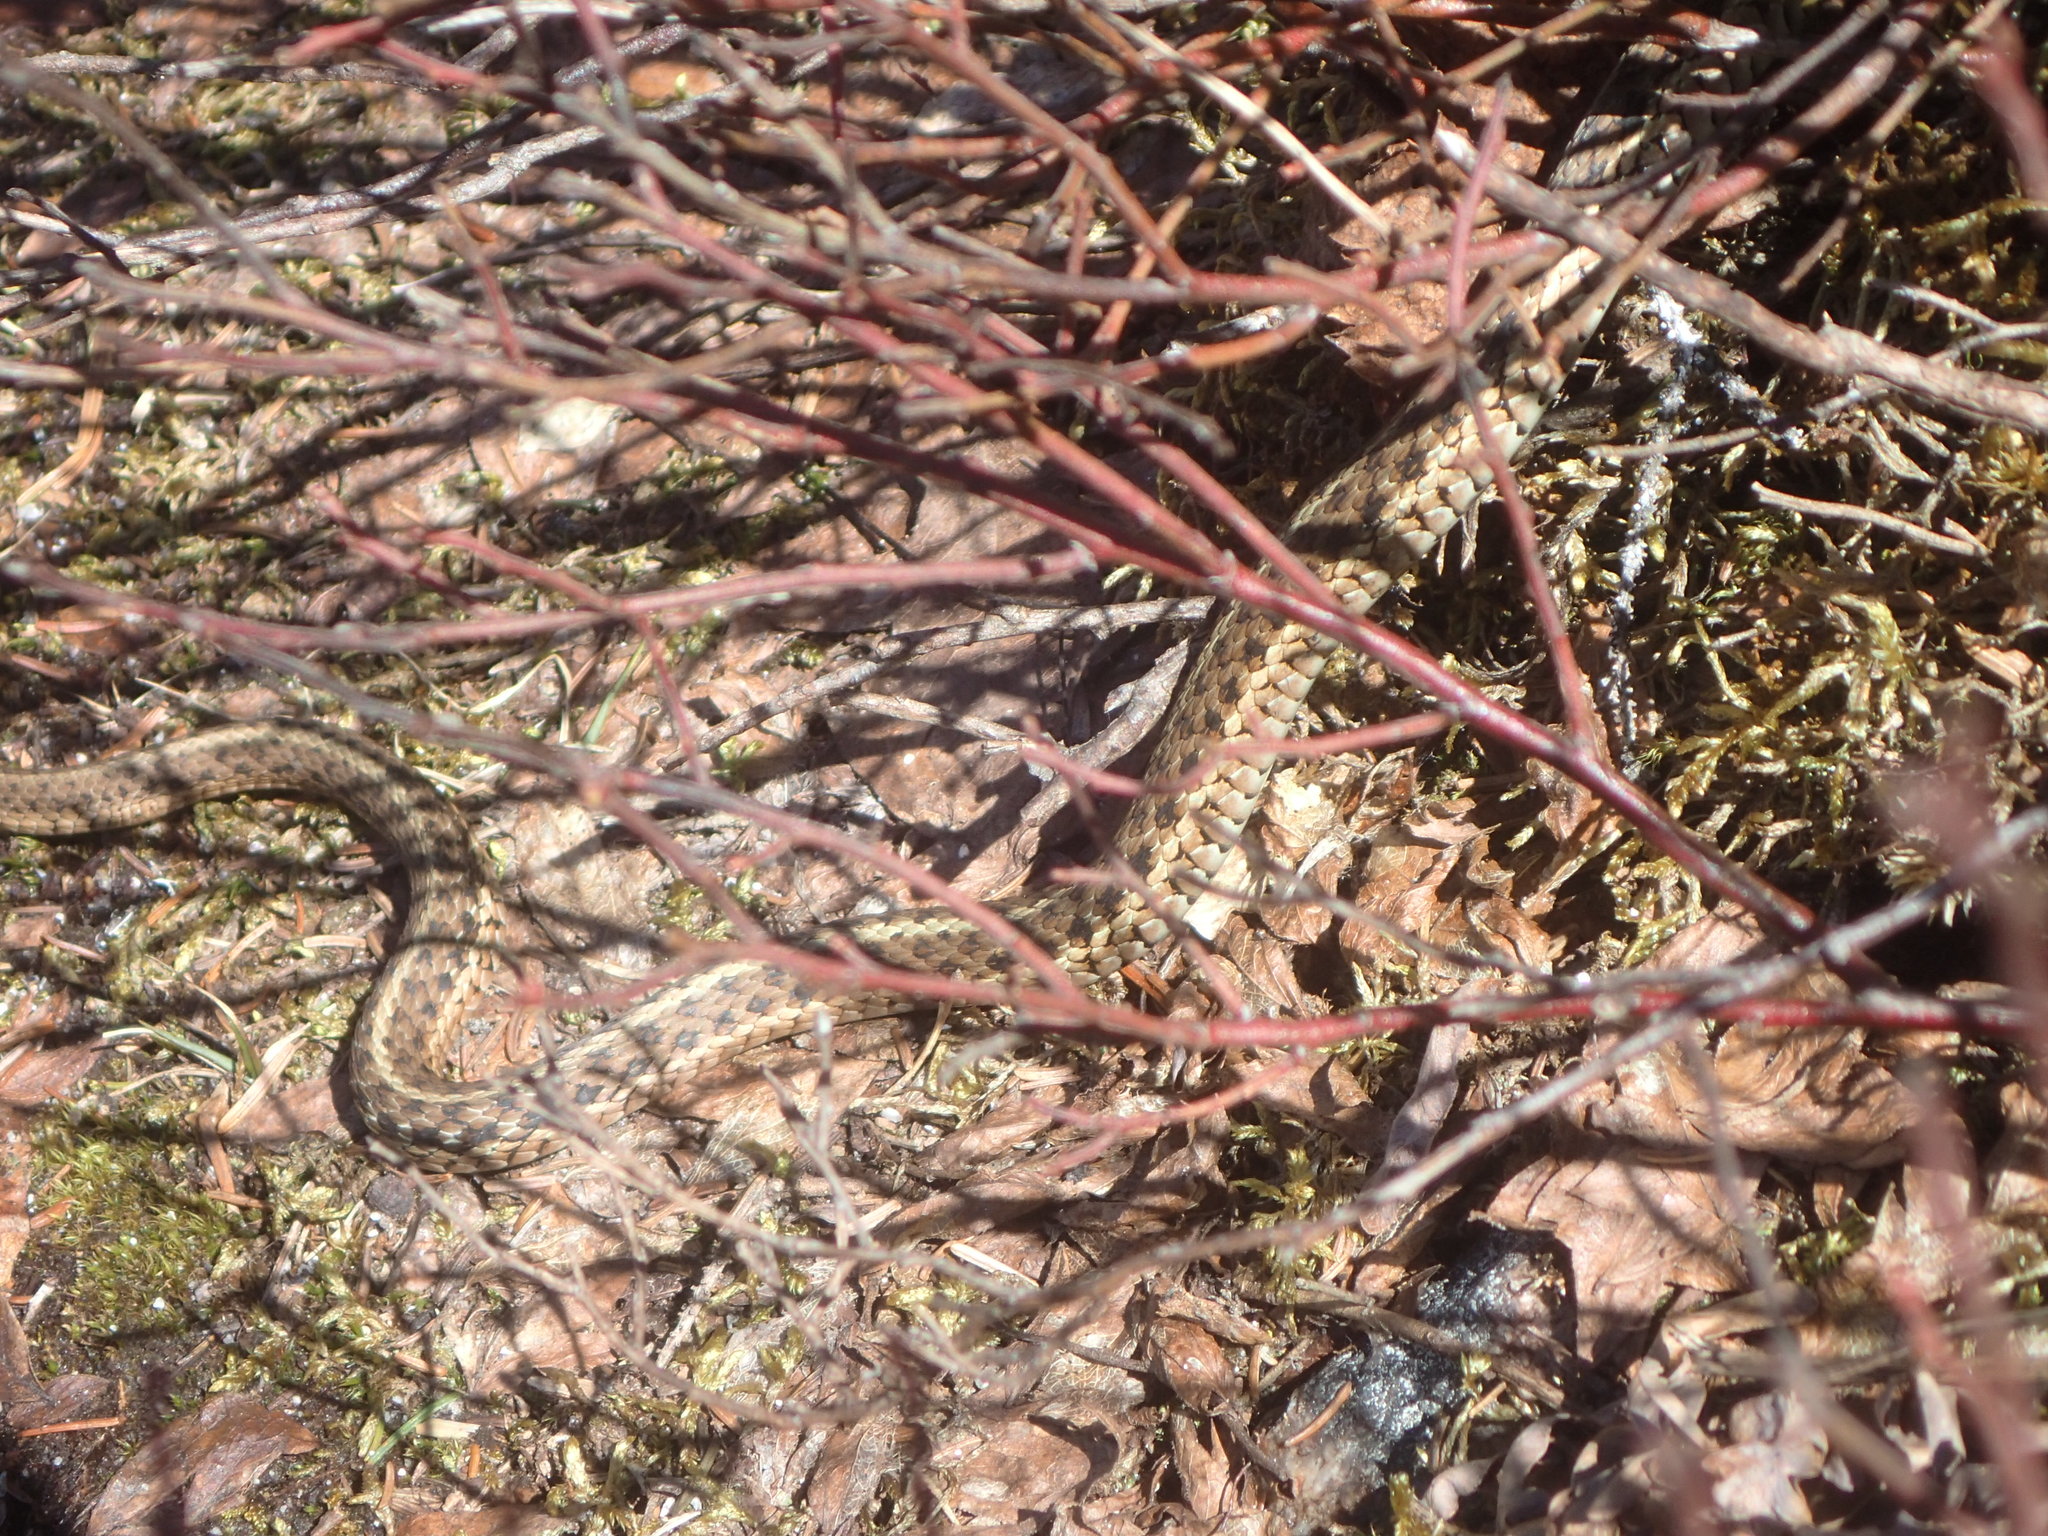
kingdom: Animalia
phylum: Chordata
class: Squamata
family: Colubridae
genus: Thamnophis
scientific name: Thamnophis sirtalis
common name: Common garter snake
